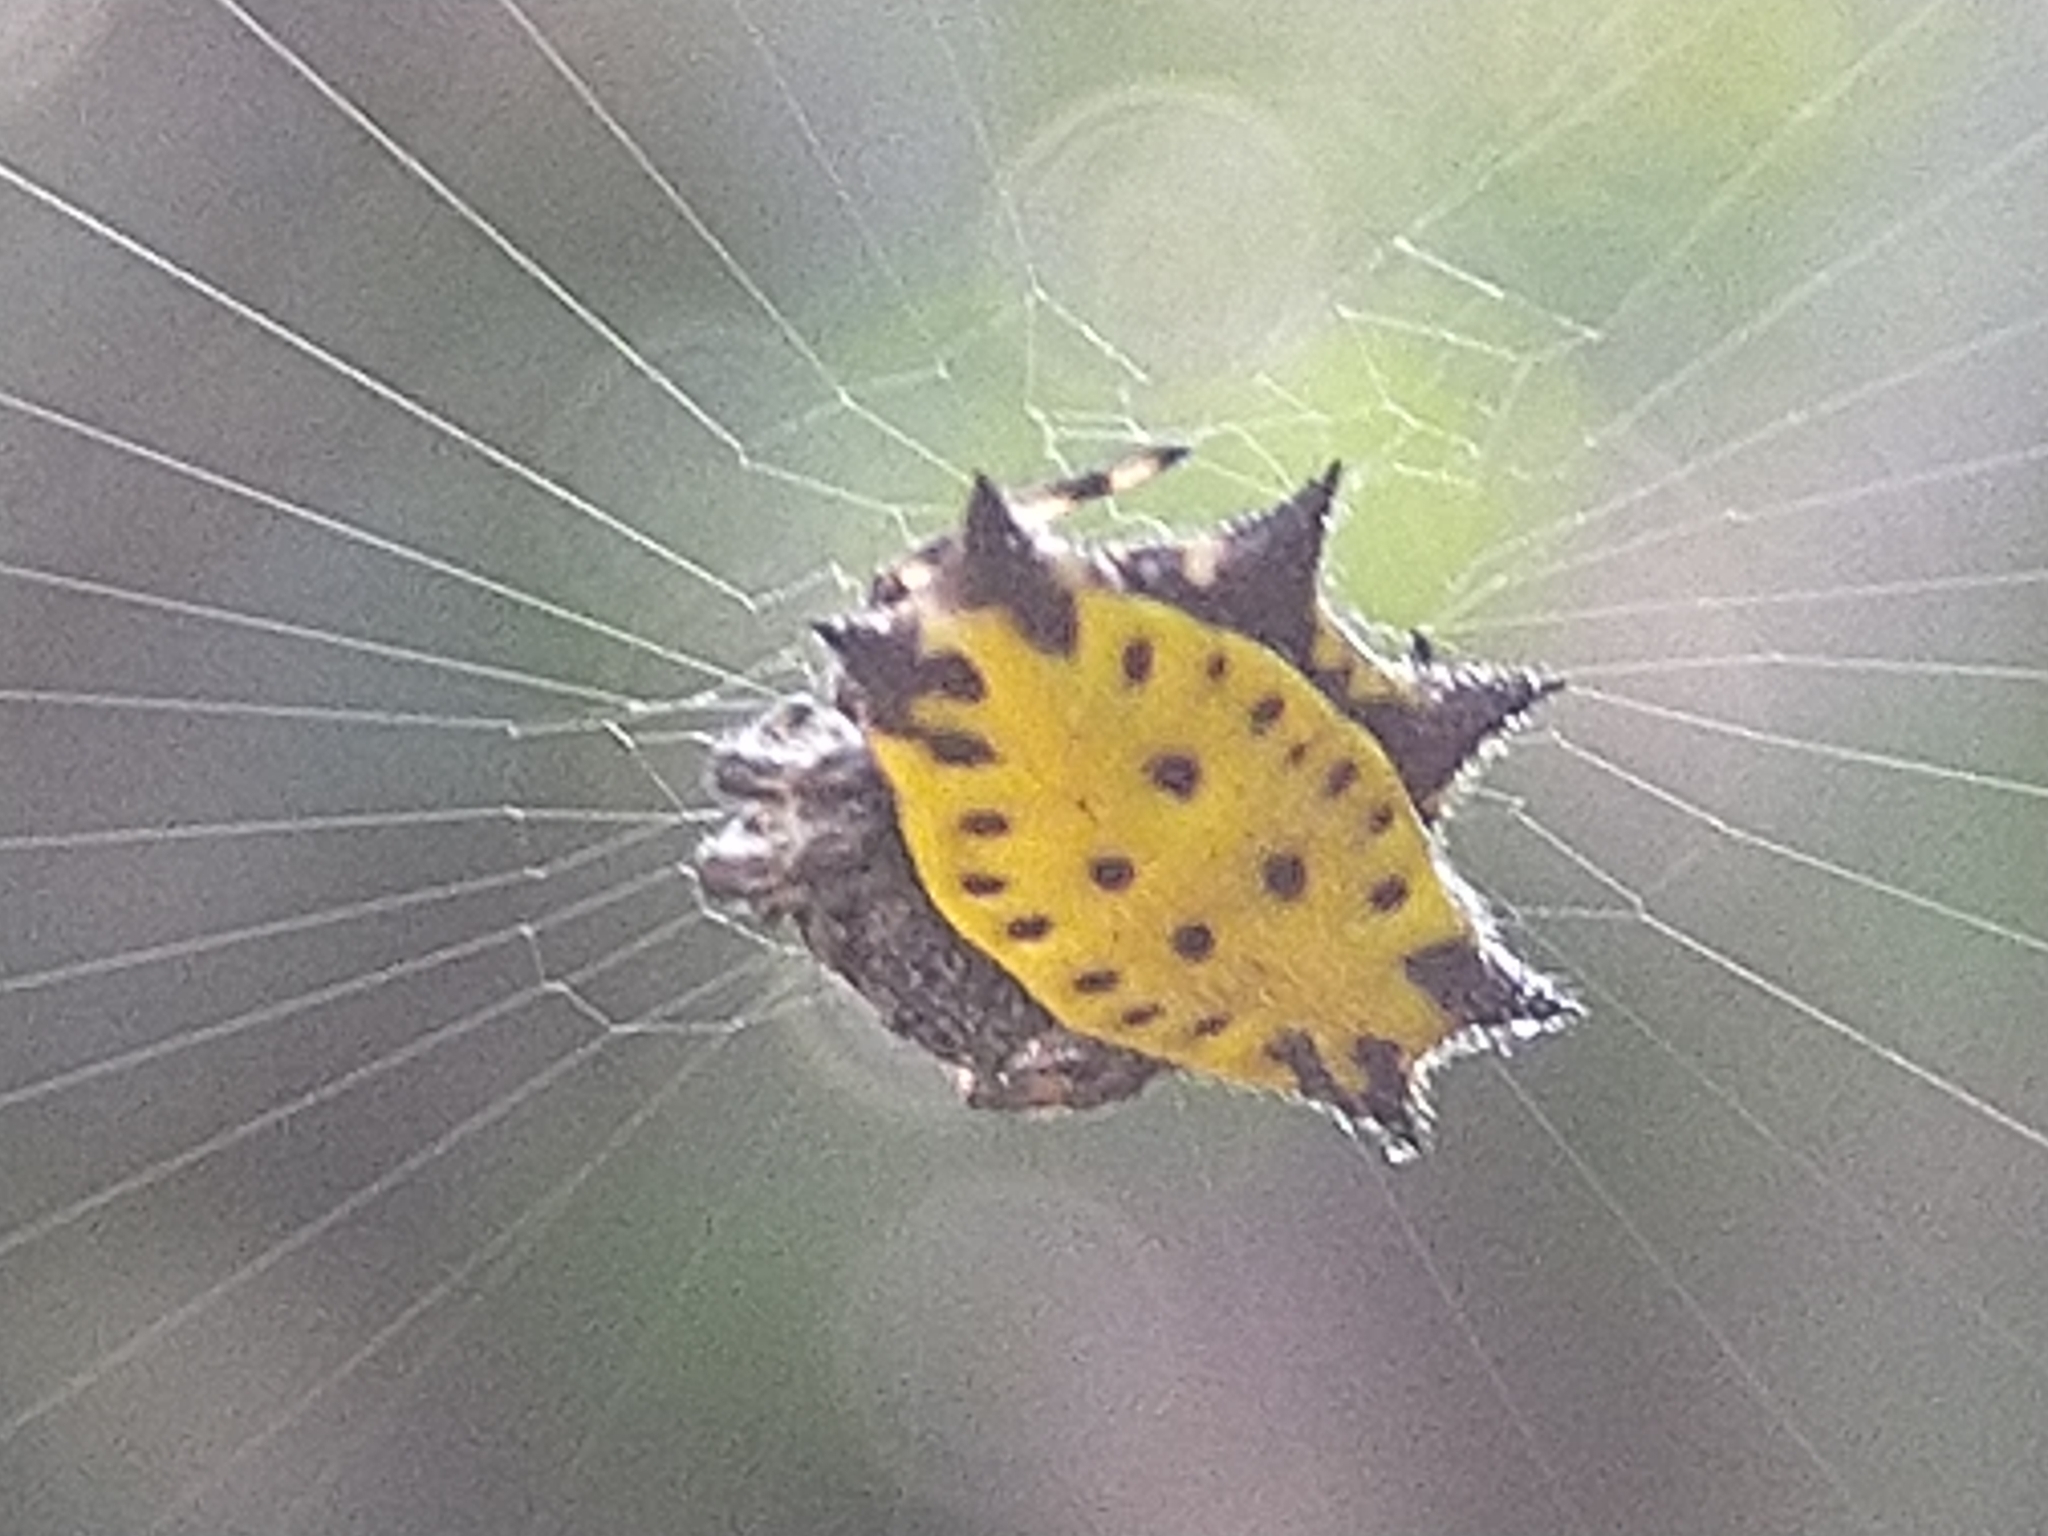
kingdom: Animalia
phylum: Arthropoda
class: Arachnida
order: Araneae
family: Araneidae
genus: Gasteracantha
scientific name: Gasteracantha cancriformis
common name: Orb weavers
